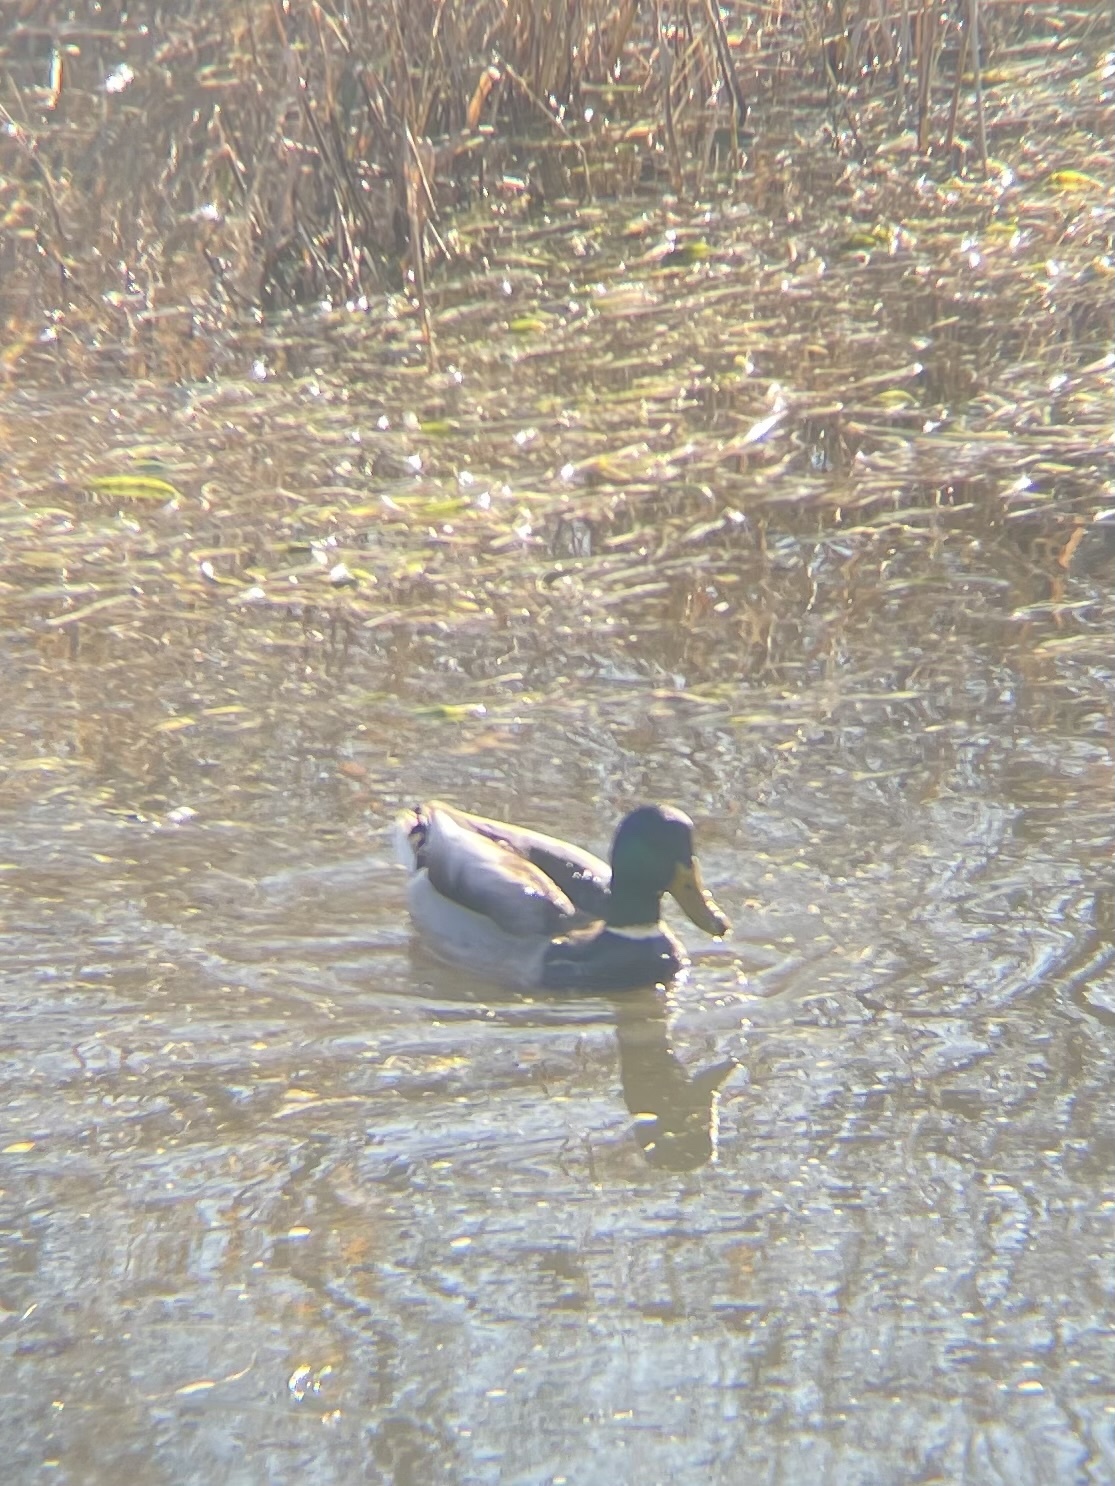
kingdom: Animalia
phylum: Chordata
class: Aves
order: Anseriformes
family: Anatidae
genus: Anas
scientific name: Anas platyrhynchos
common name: Mallard
